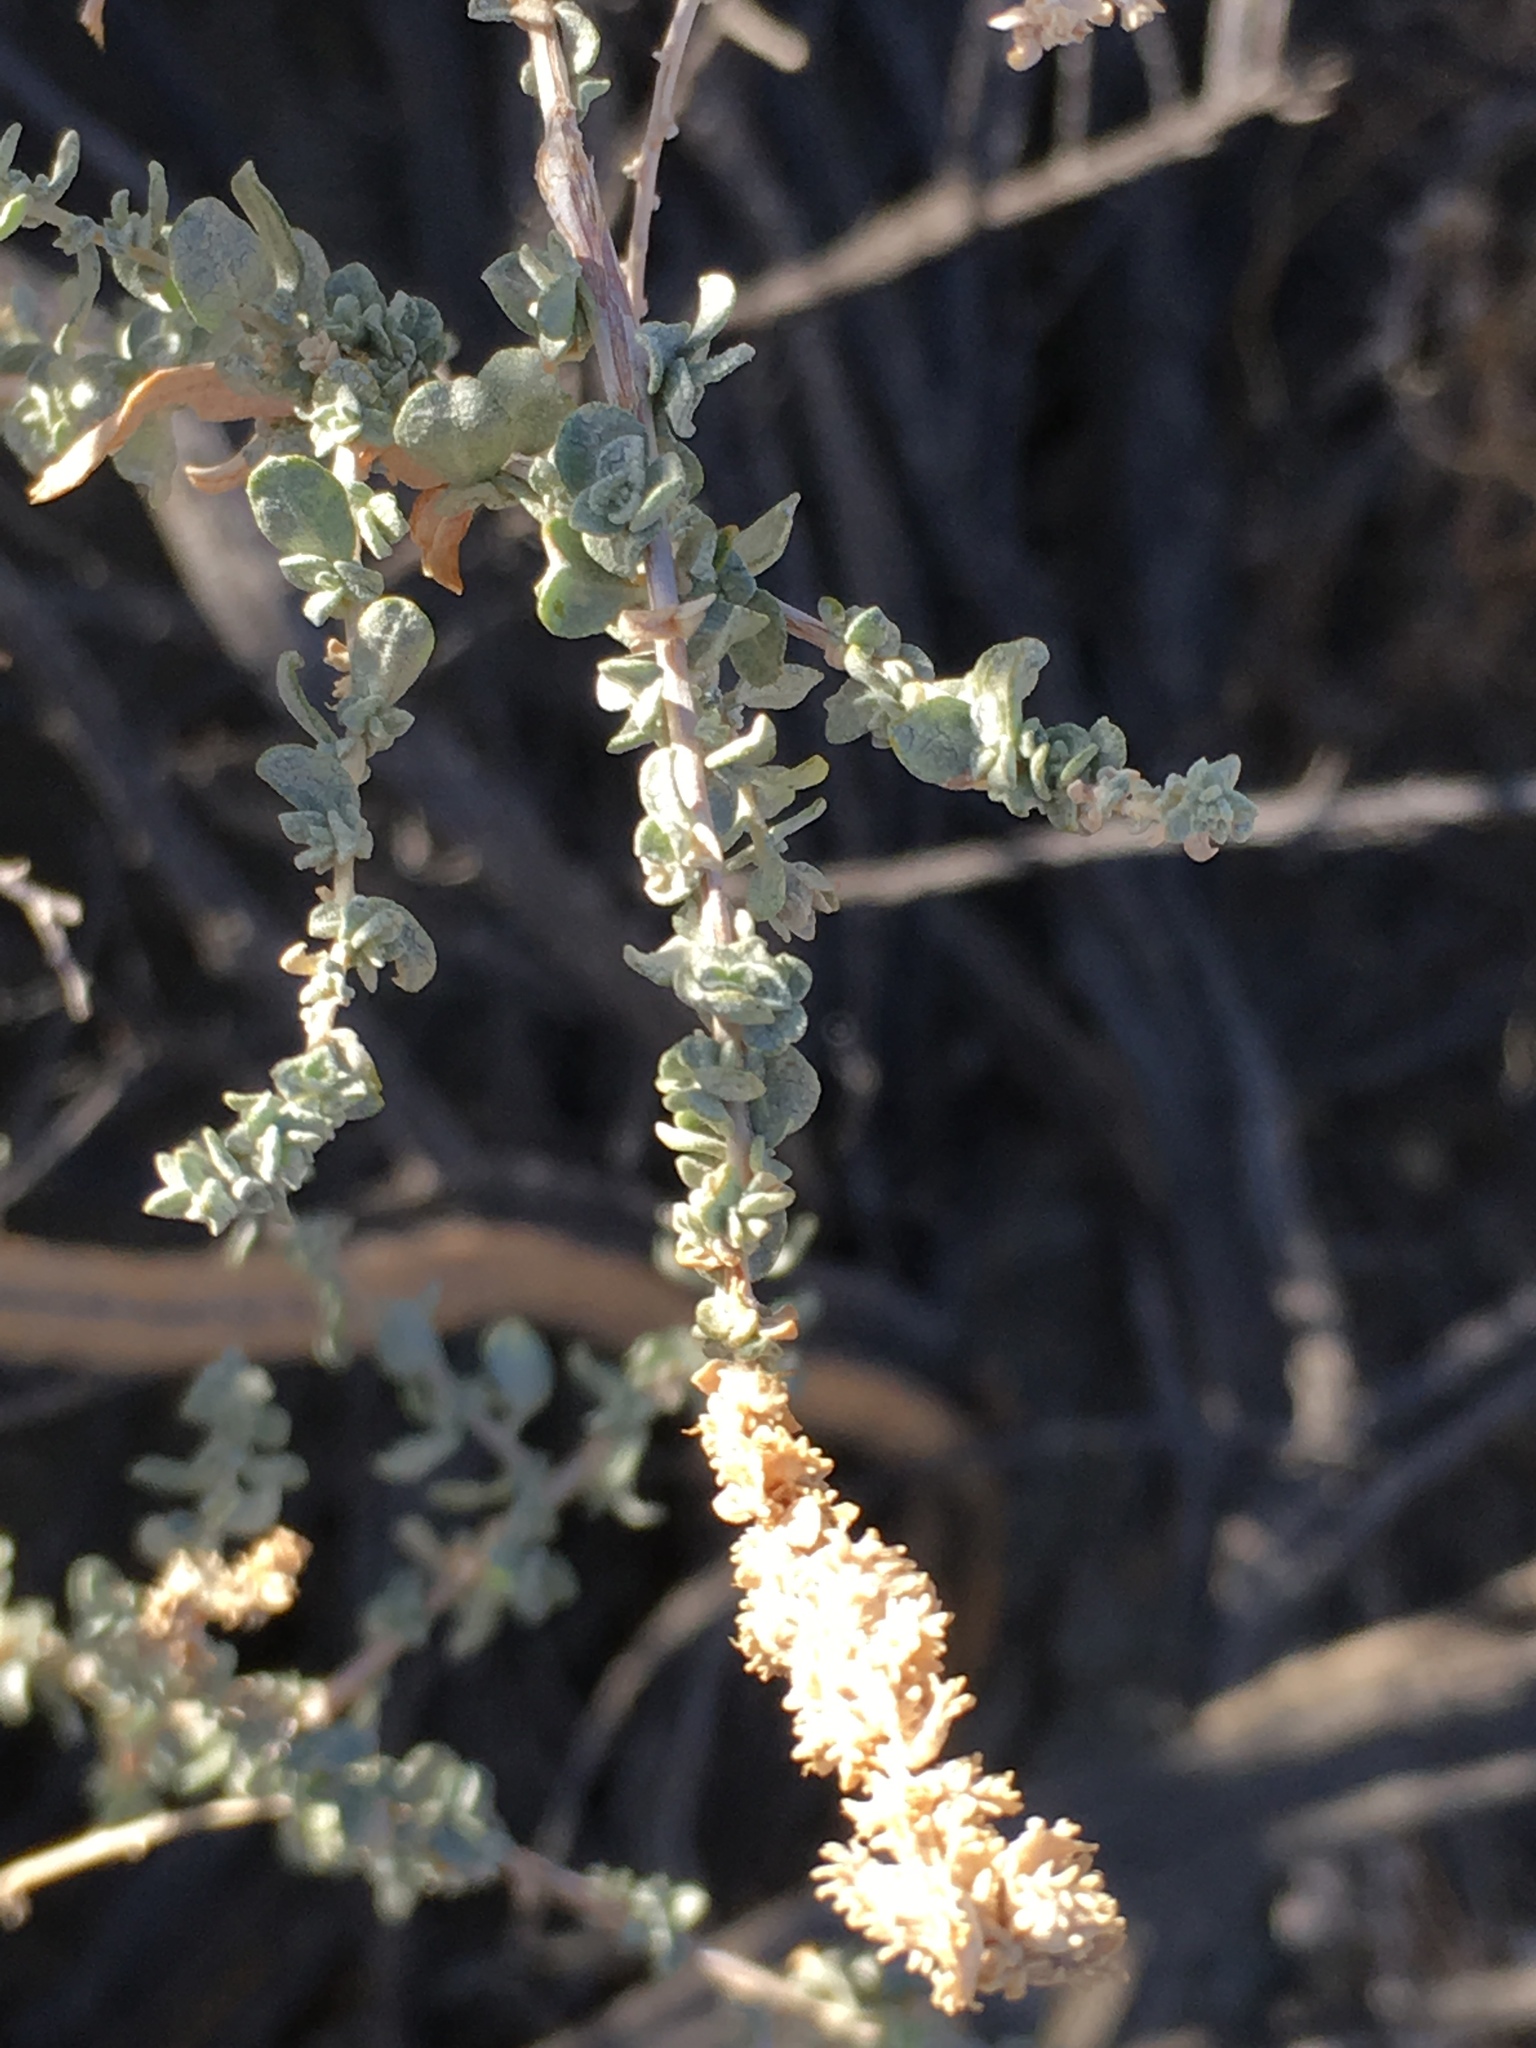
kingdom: Plantae
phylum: Tracheophyta
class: Magnoliopsida
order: Caryophyllales
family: Amaranthaceae
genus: Atriplex
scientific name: Atriplex polycarpa
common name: Desert saltbush
